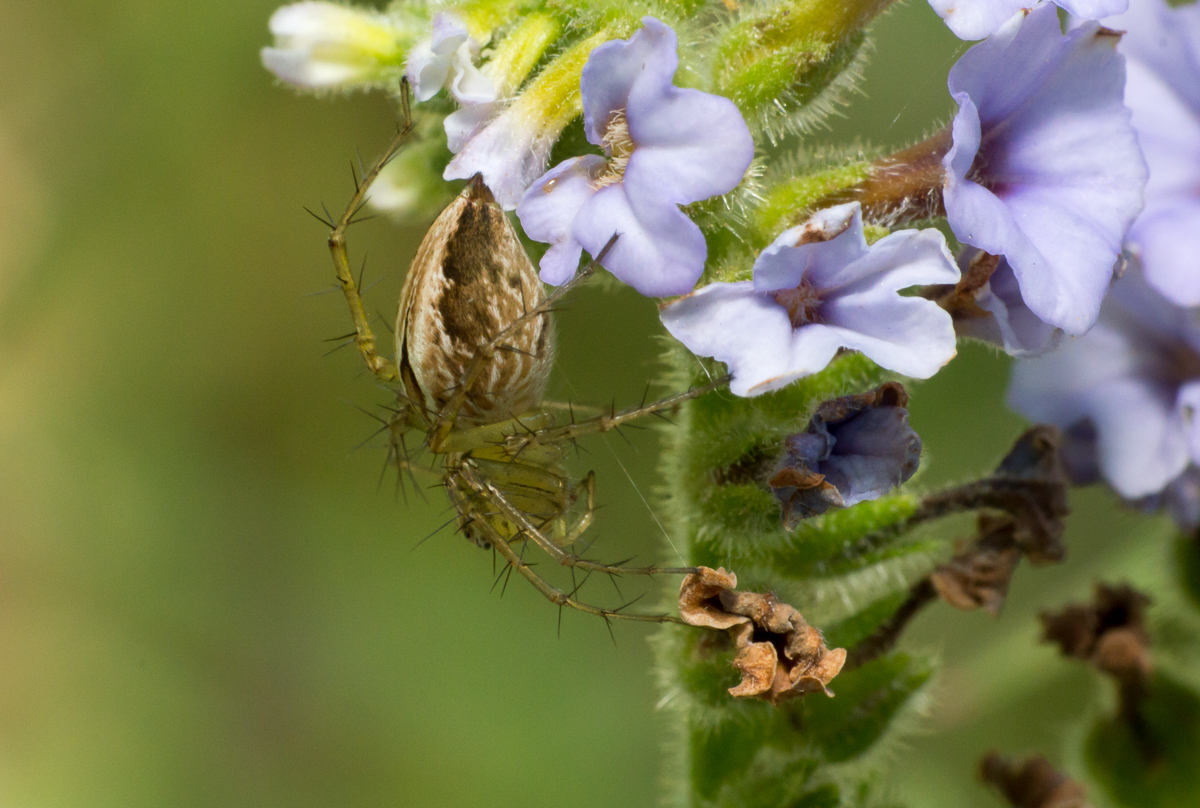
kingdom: Animalia
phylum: Arthropoda
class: Arachnida
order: Araneae
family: Oxyopidae
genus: Oxyopes
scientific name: Oxyopes salticus
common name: Lynx spiders
